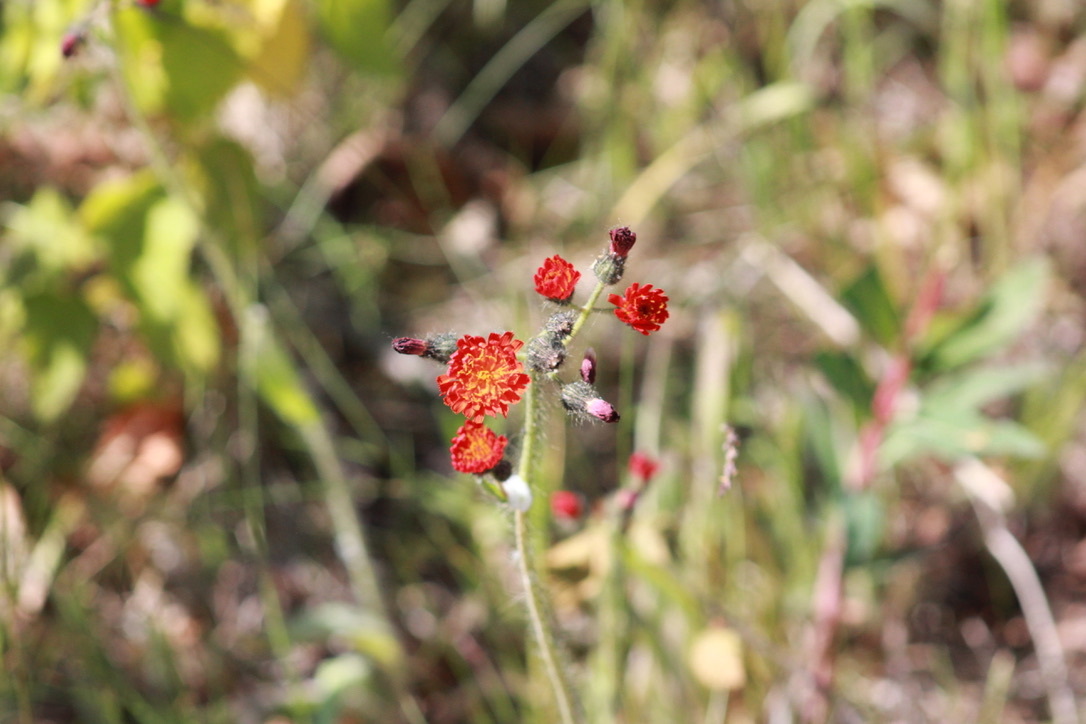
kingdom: Plantae
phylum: Tracheophyta
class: Magnoliopsida
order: Asterales
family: Asteraceae
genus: Pilosella
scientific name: Pilosella aurantiaca
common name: Fox-and-cubs
